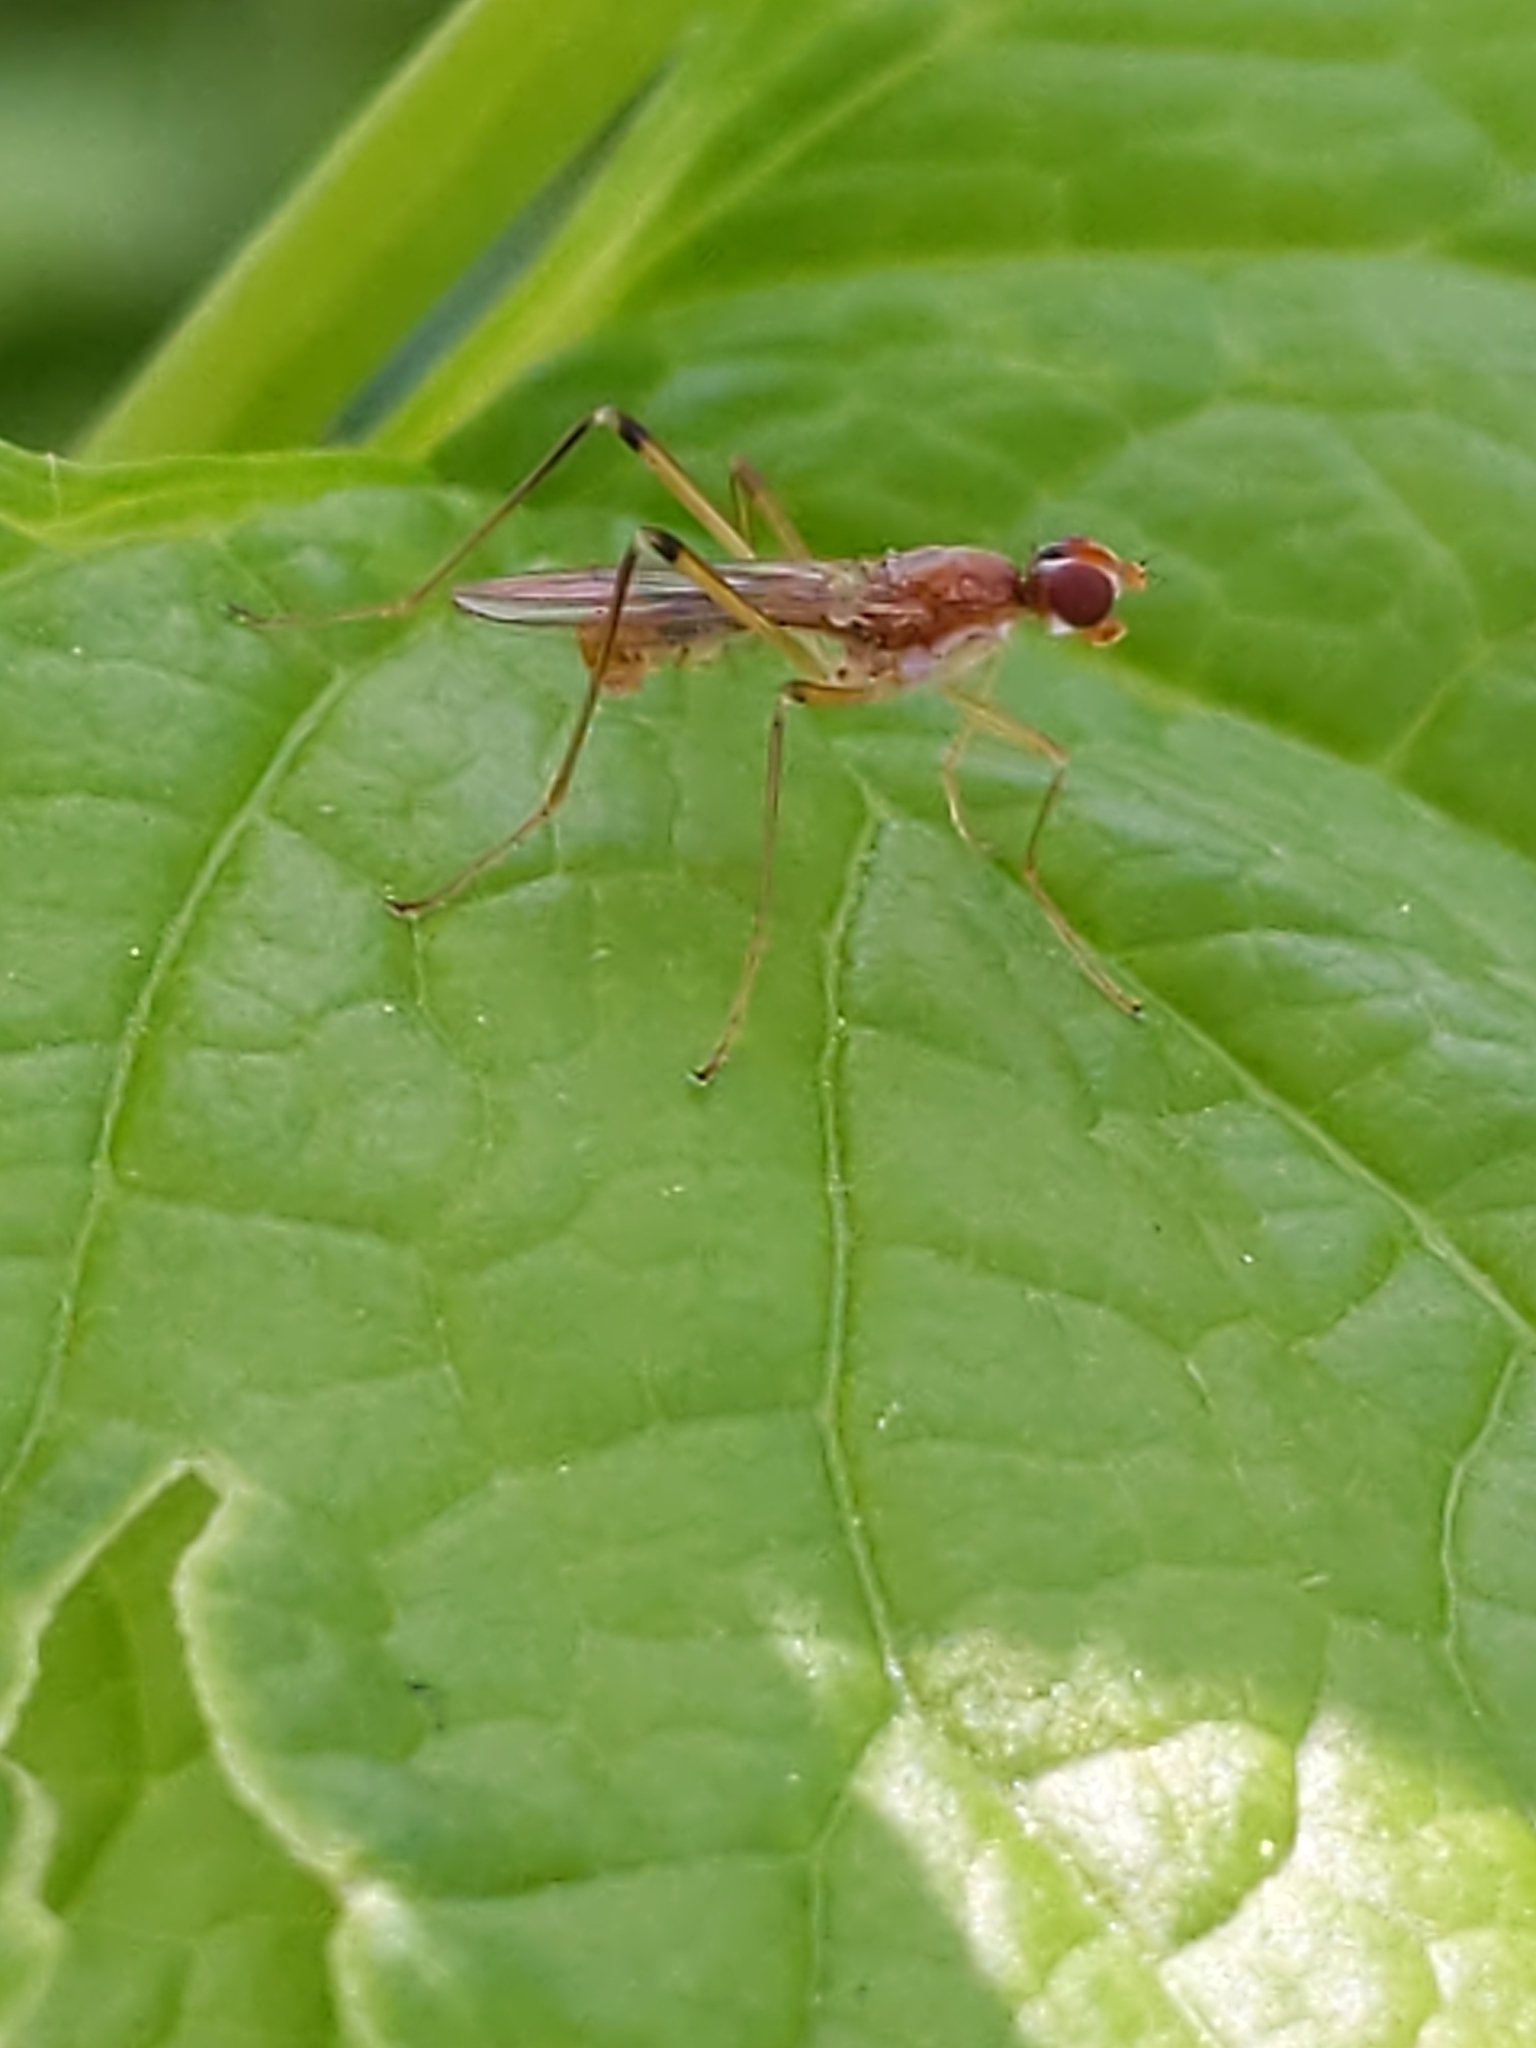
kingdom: Animalia
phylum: Arthropoda
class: Insecta
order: Diptera
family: Micropezidae
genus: Compsobata
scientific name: Compsobata univitta
